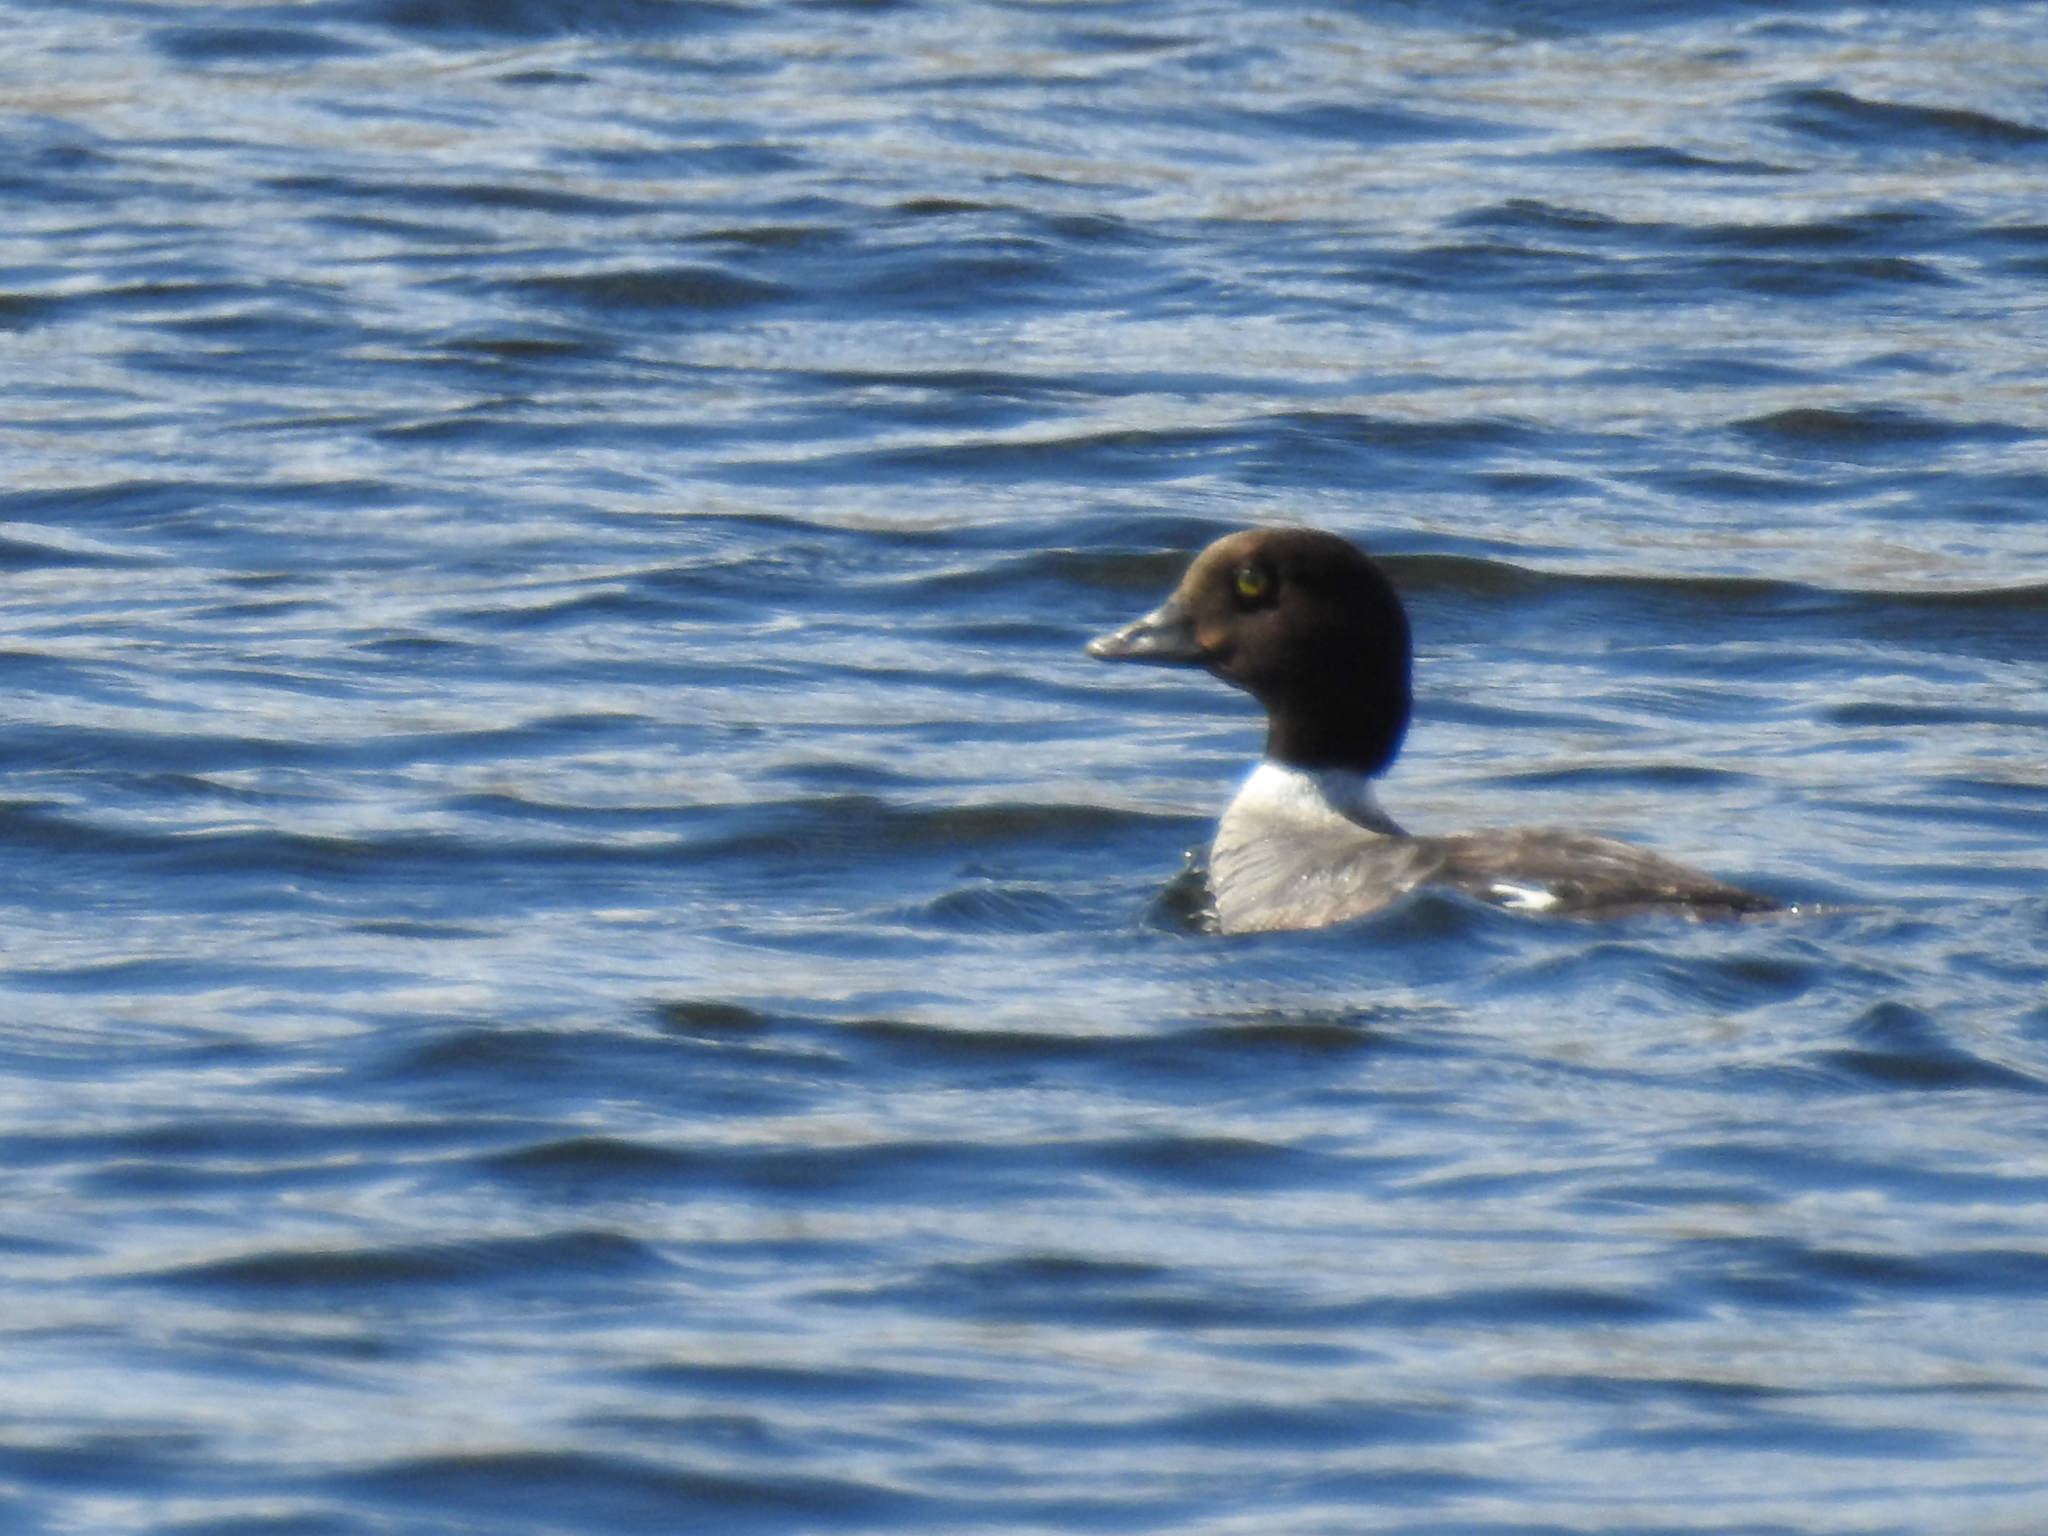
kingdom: Animalia
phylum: Chordata
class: Aves
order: Anseriformes
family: Anatidae
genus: Bucephala
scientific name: Bucephala clangula
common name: Common goldeneye
